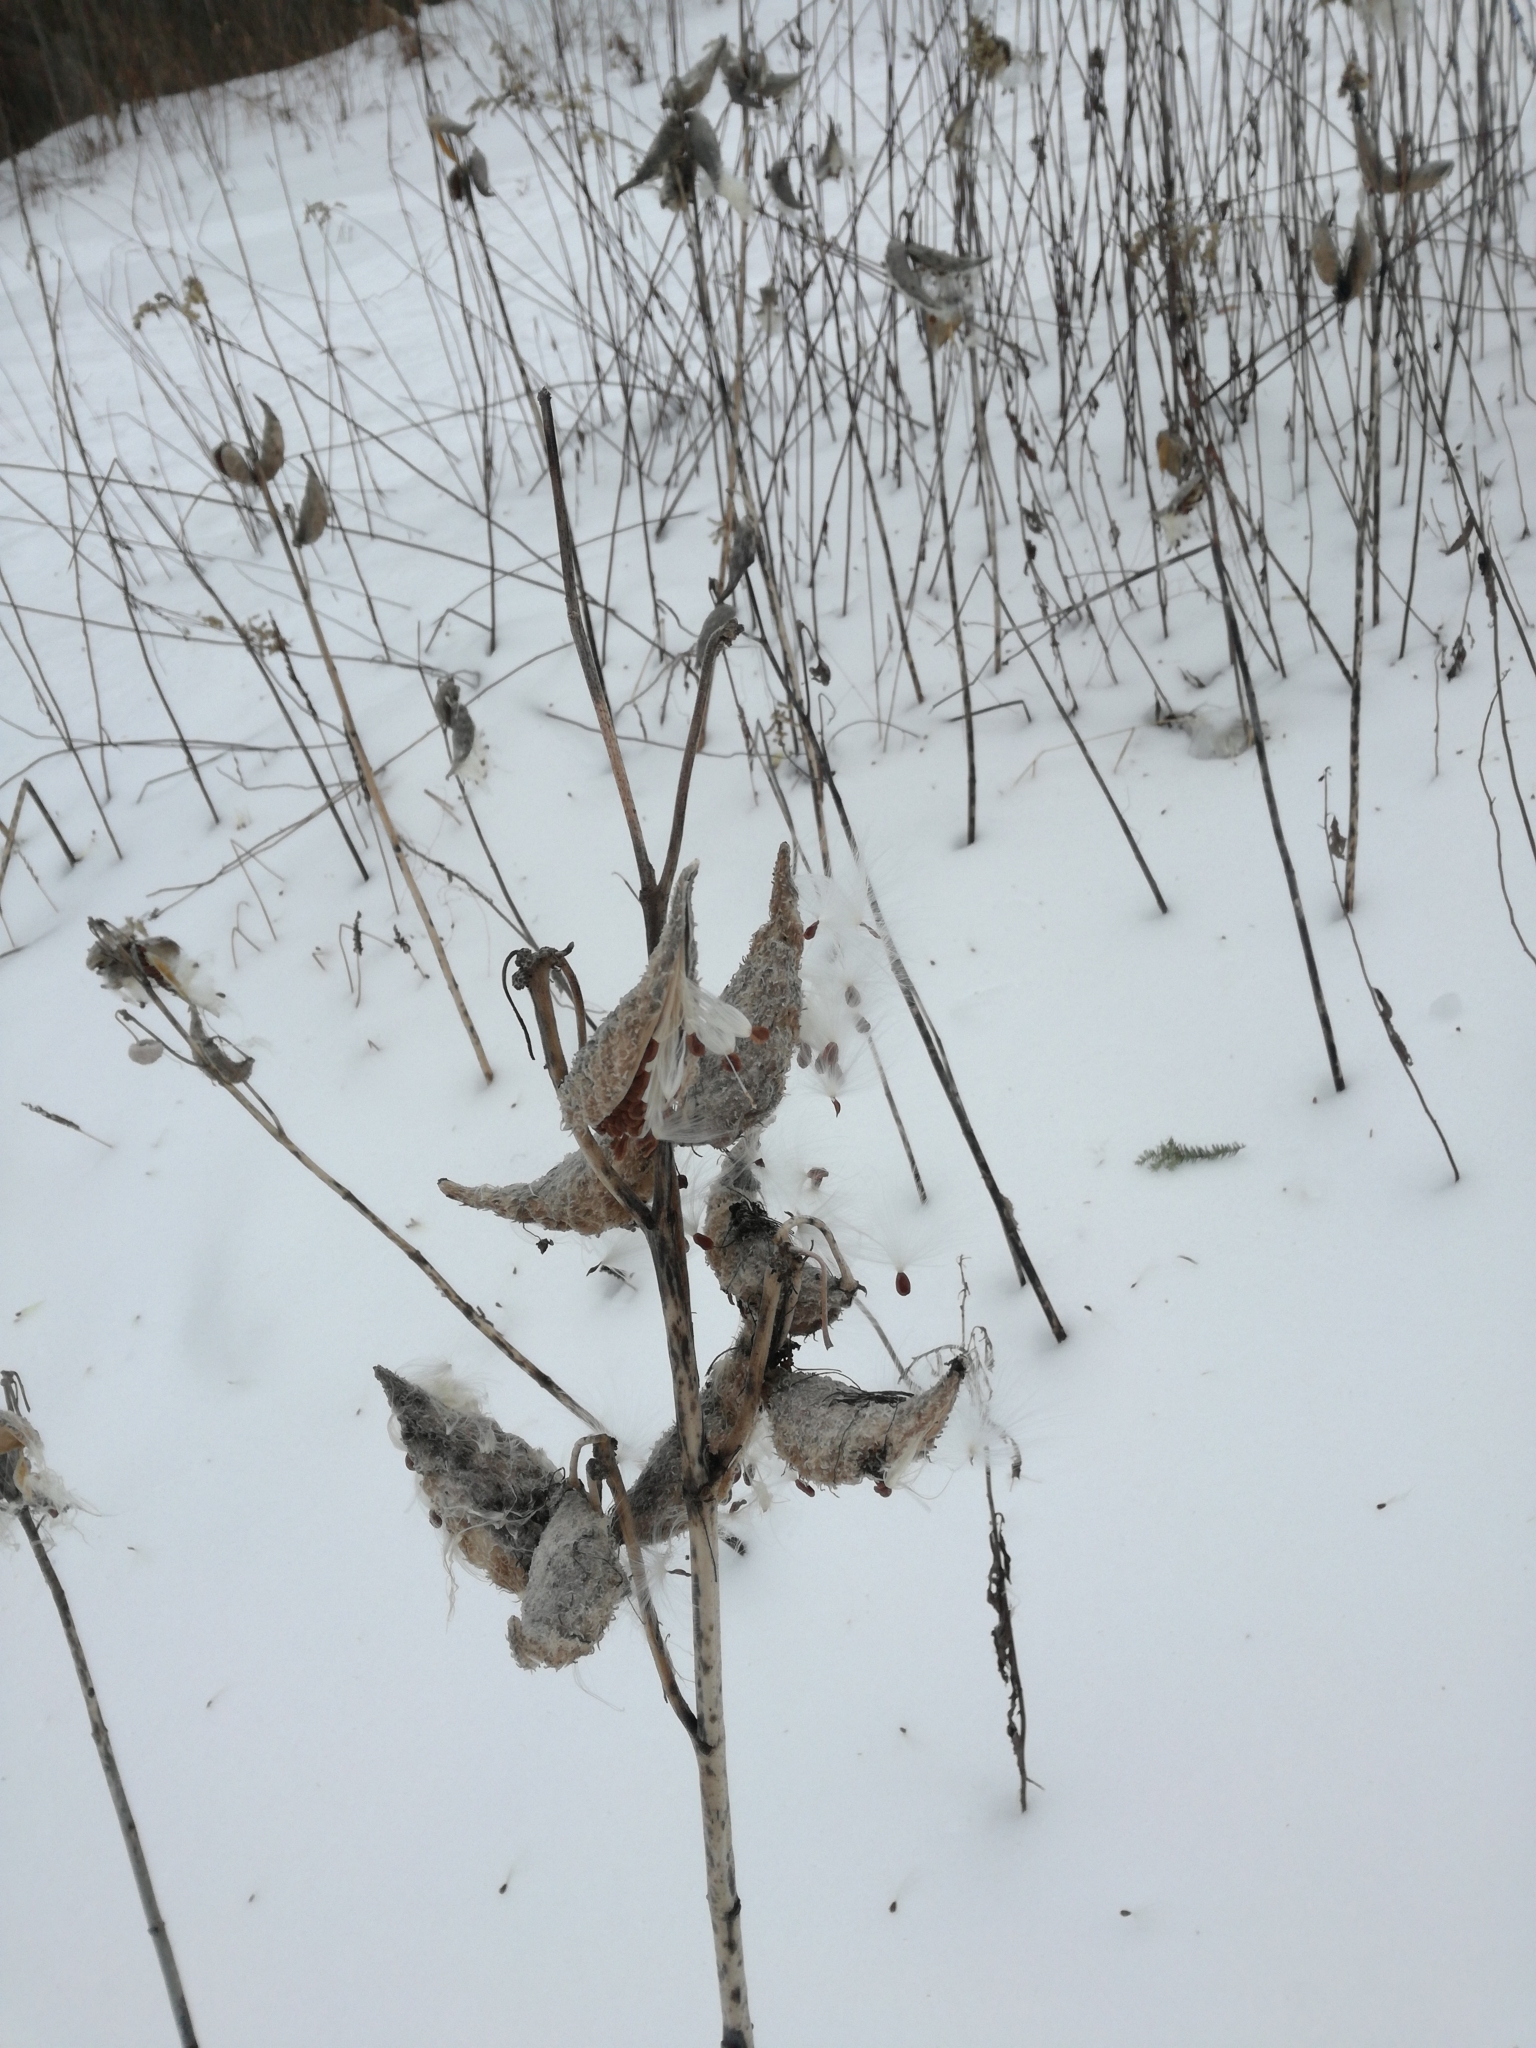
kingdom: Plantae
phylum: Tracheophyta
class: Magnoliopsida
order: Gentianales
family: Apocynaceae
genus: Asclepias
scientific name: Asclepias syriaca
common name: Common milkweed
